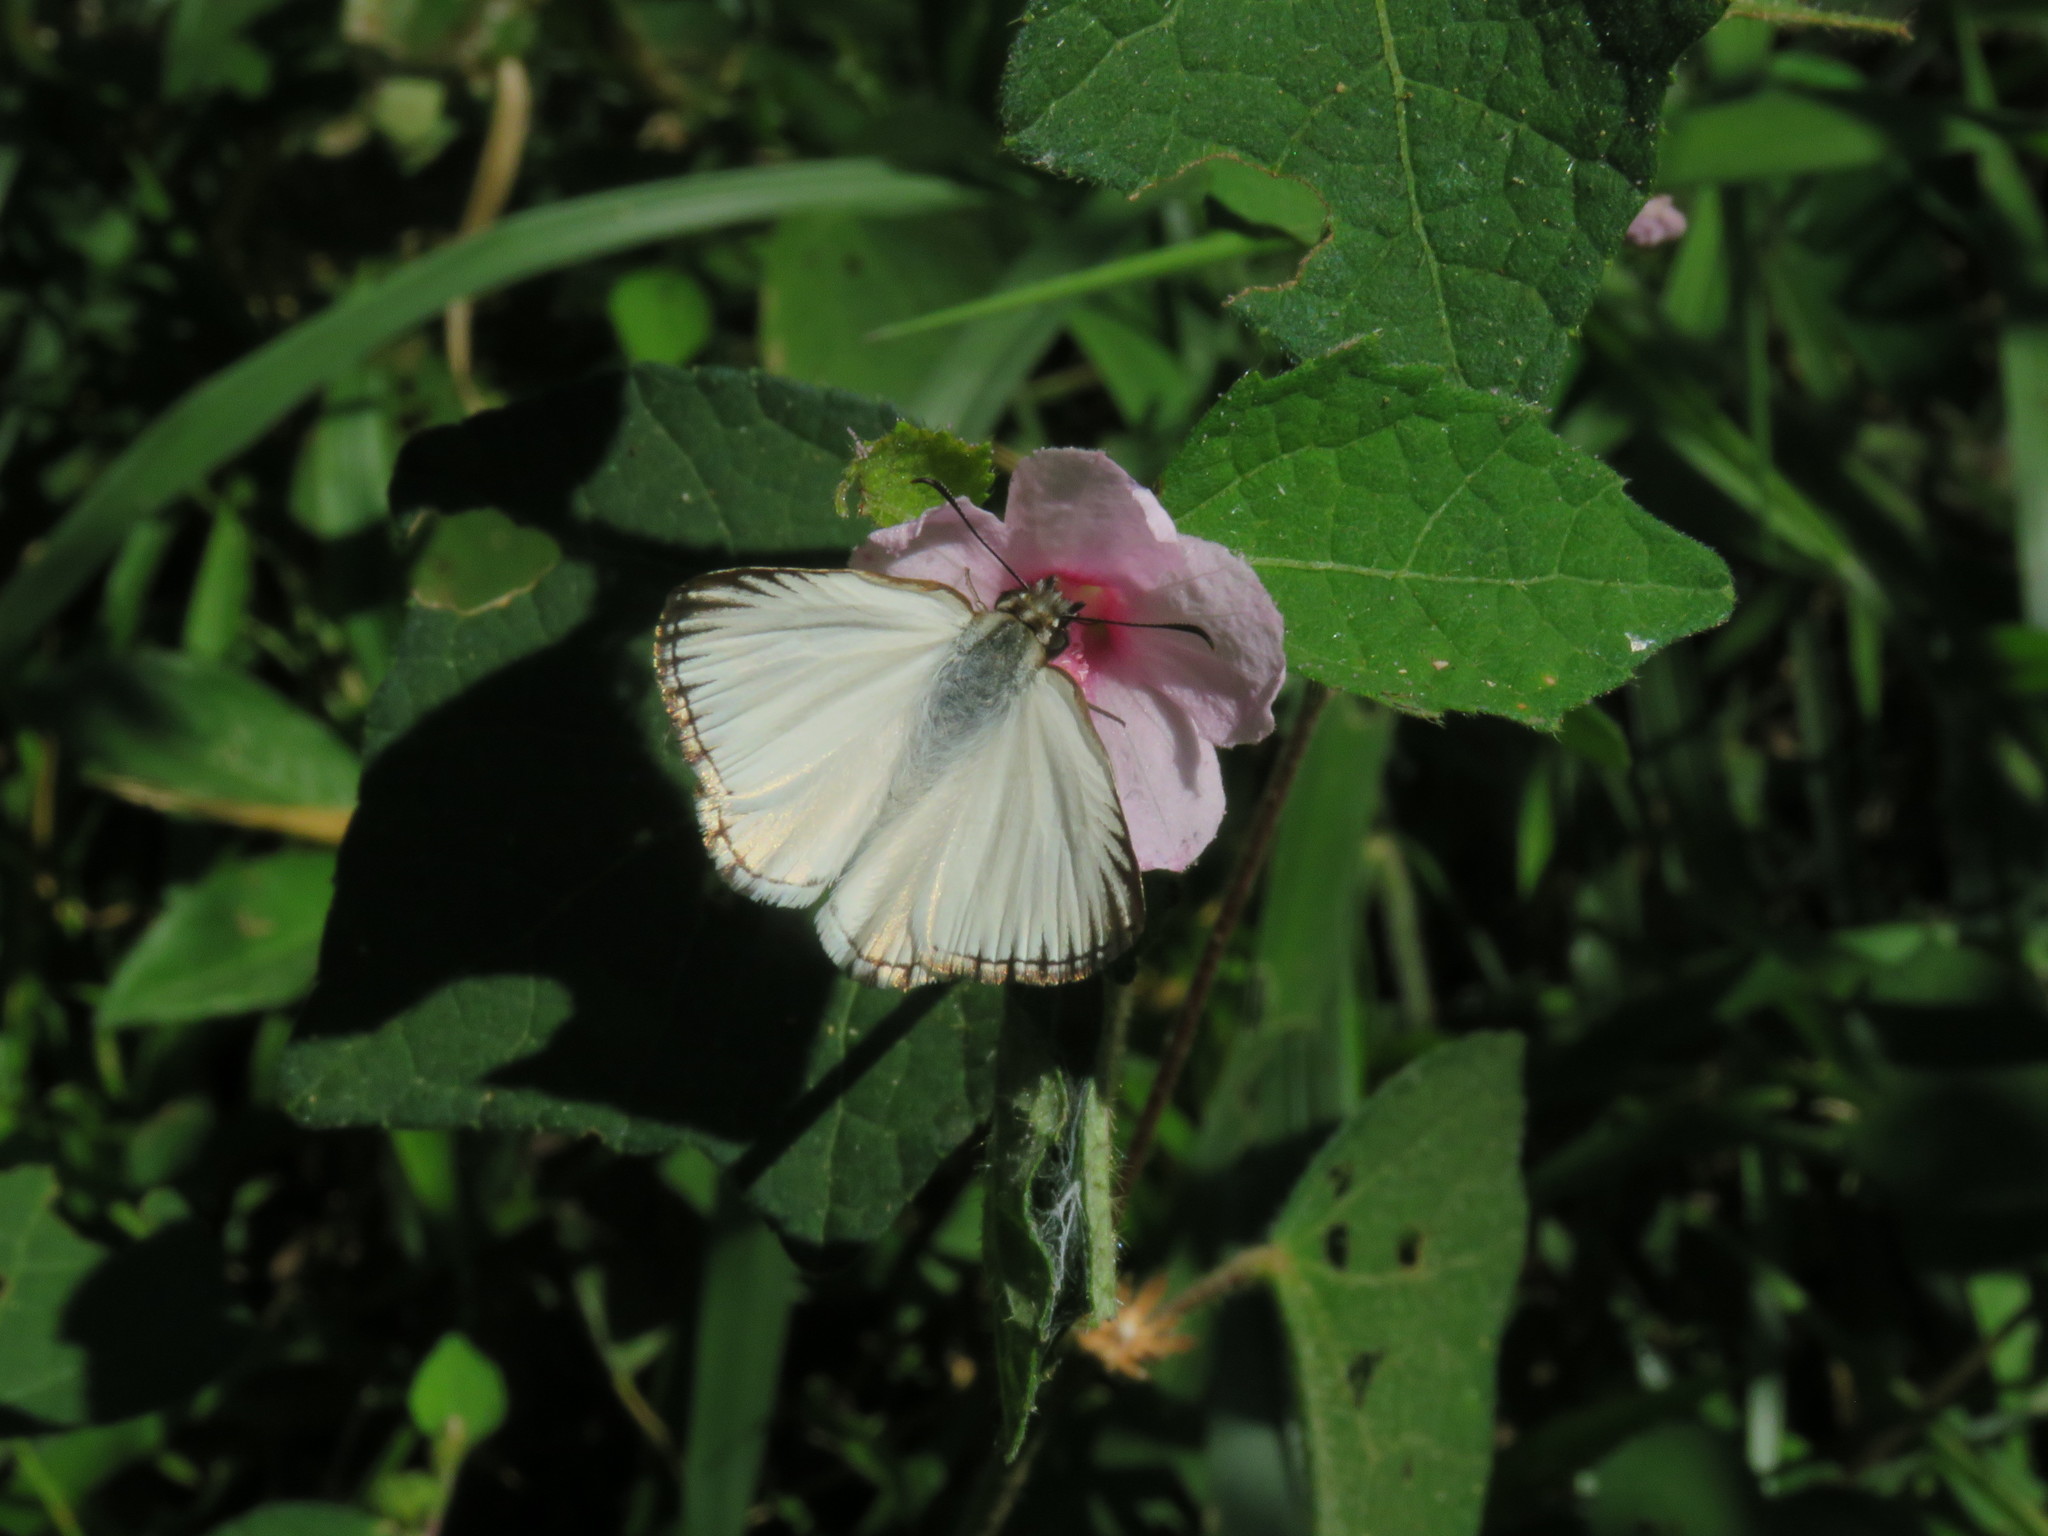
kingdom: Animalia
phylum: Arthropoda
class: Insecta
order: Lepidoptera
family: Hesperiidae
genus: Heliopetes
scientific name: Heliopetes arsalte
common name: Veined white-skipper
